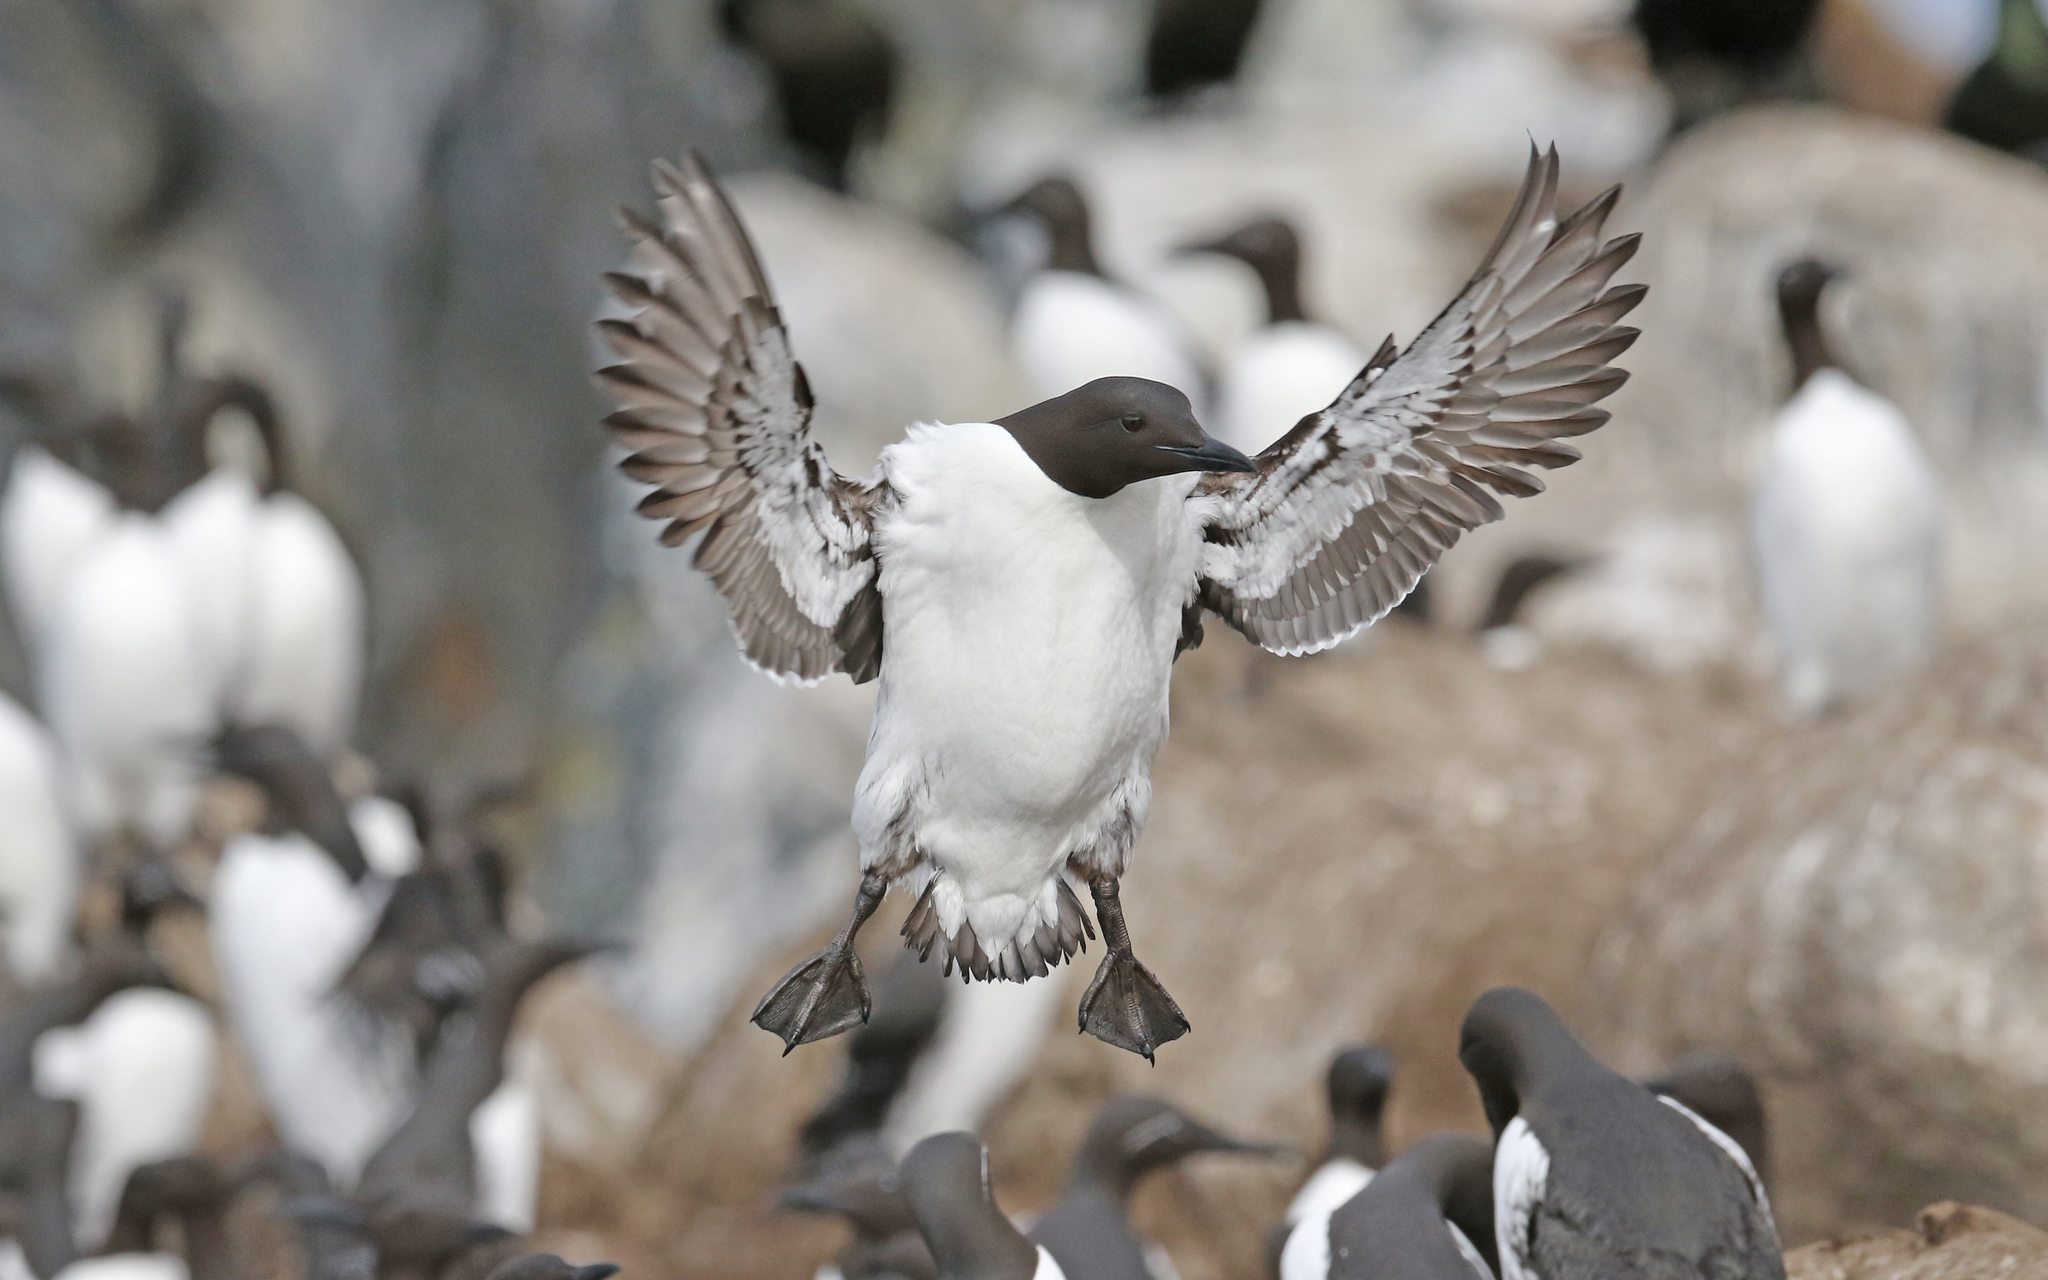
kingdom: Animalia
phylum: Chordata
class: Aves
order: Charadriiformes
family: Alcidae
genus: Uria
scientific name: Uria aalge
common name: Common murre
